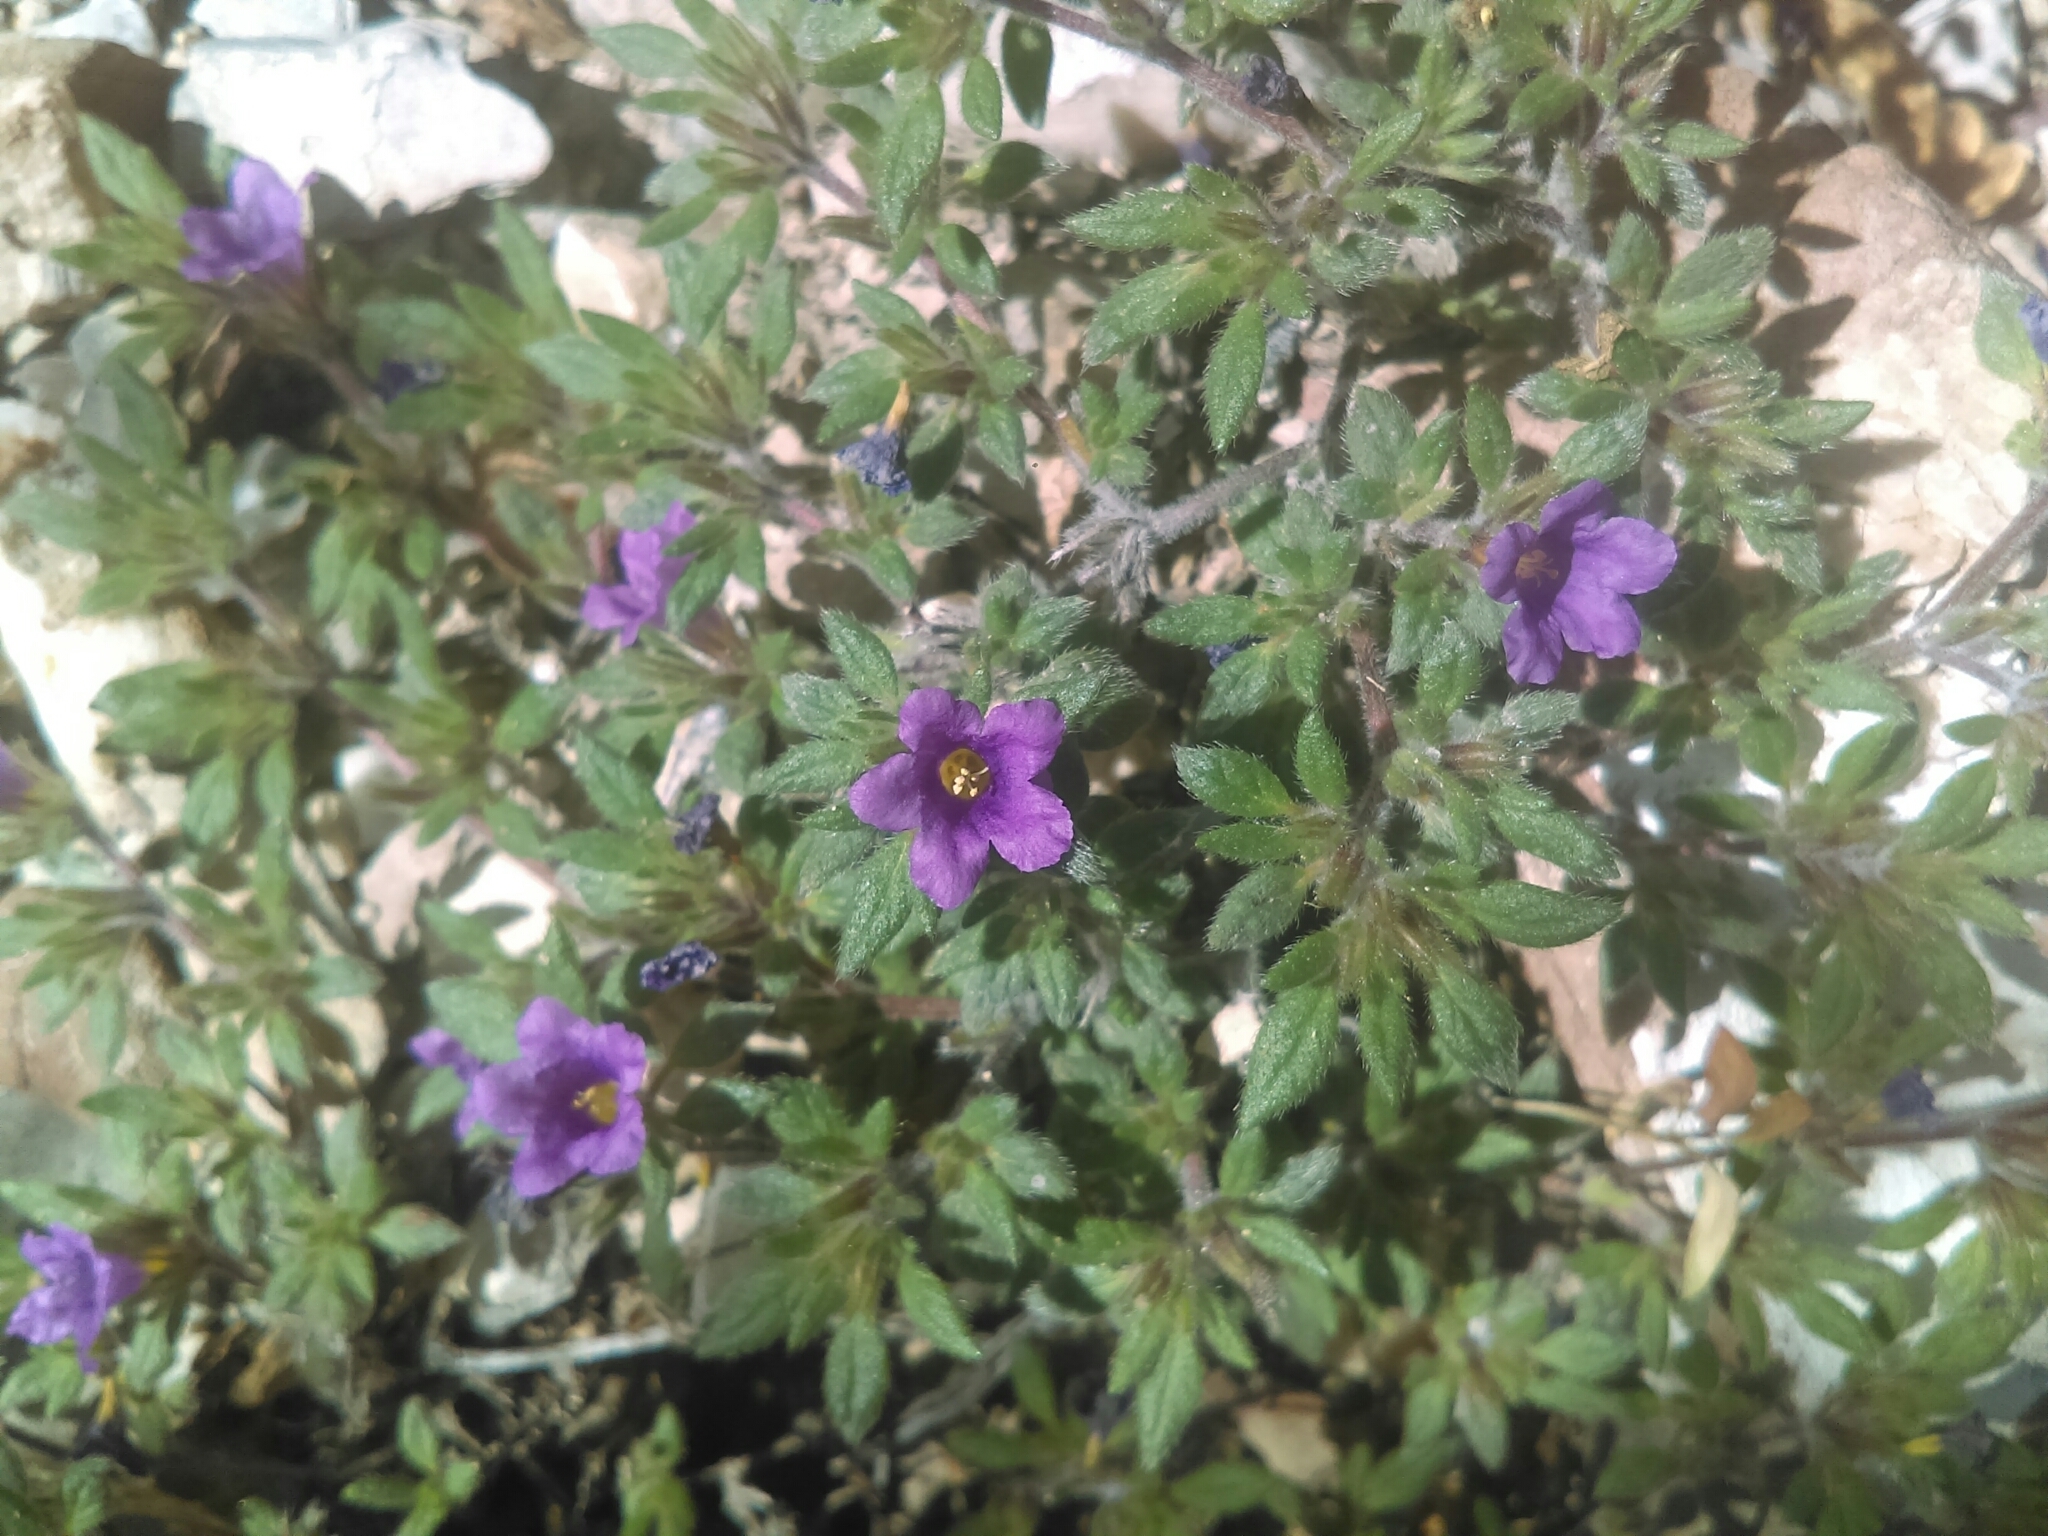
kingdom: Plantae
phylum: Tracheophyta
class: Magnoliopsida
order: Boraginales
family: Ehretiaceae
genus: Tiquilia
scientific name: Tiquilia purpusii
